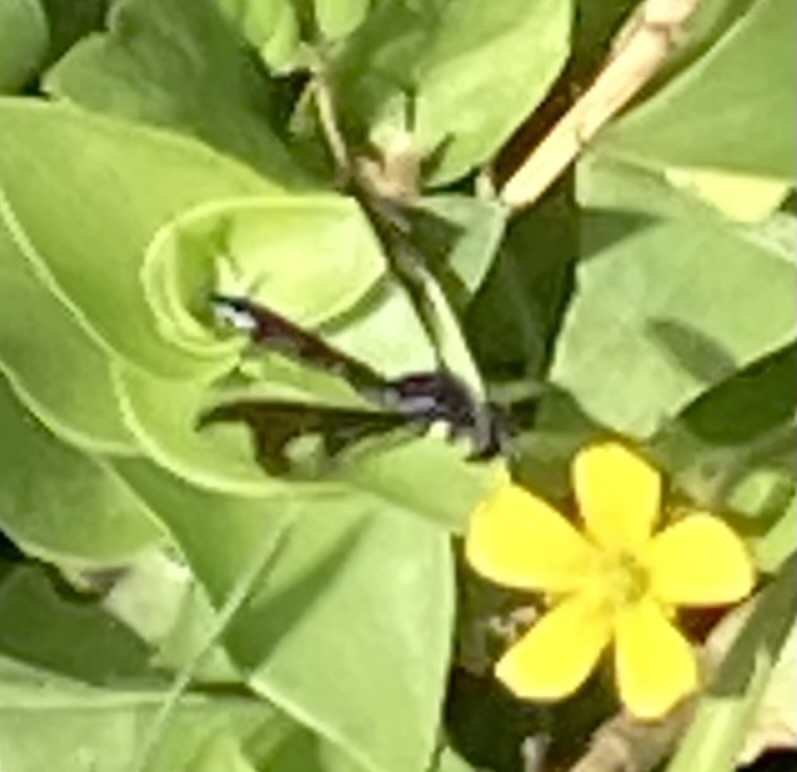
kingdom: Animalia
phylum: Arthropoda
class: Insecta
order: Diptera
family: Syrphidae
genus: Ocyptamus
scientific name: Ocyptamus fuscipennis
